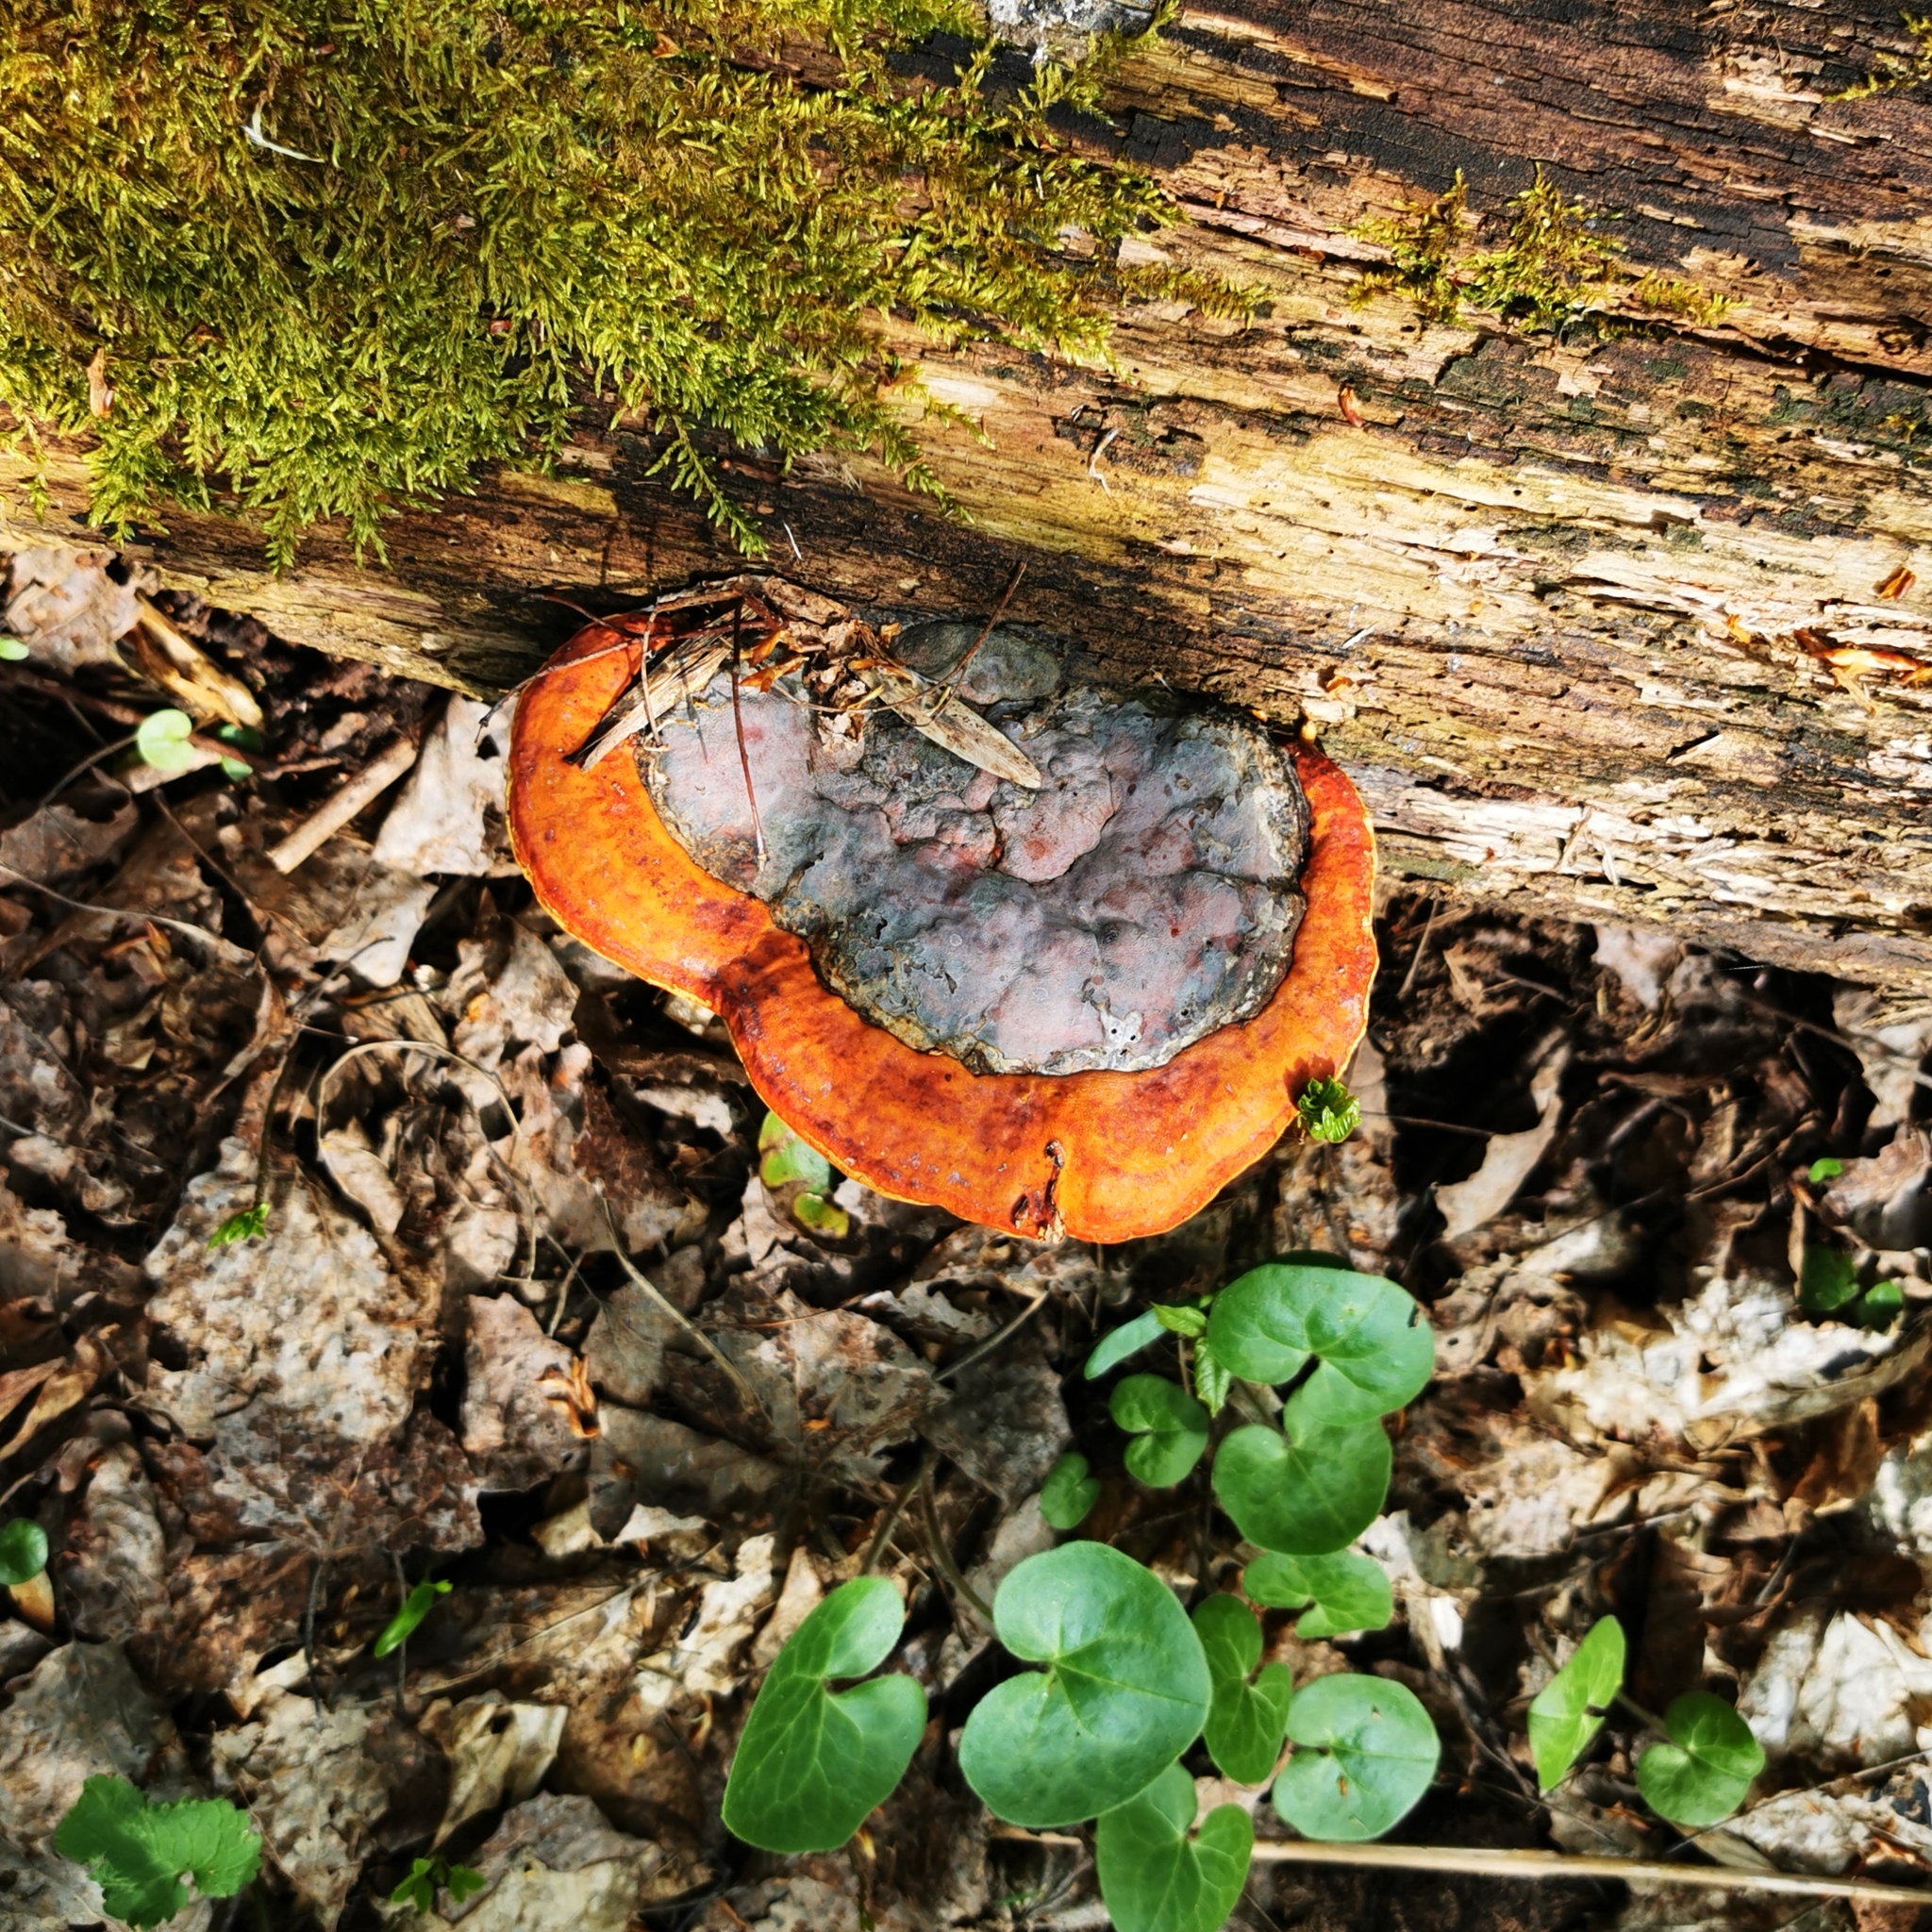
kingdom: Fungi
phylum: Basidiomycota
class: Agaricomycetes
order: Polyporales
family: Fomitopsidaceae
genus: Fomitopsis
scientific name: Fomitopsis pinicola
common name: Red-belted bracket
